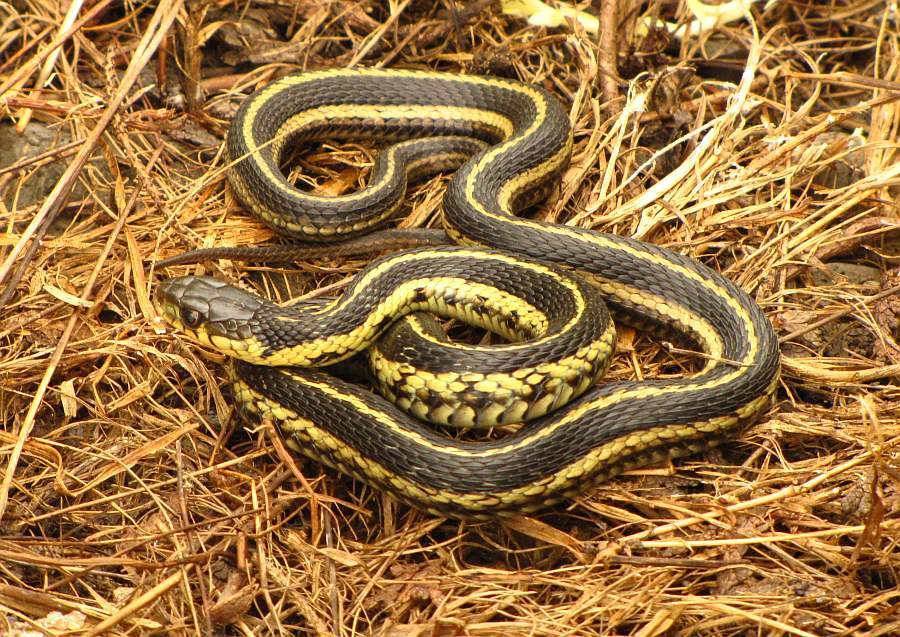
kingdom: Animalia
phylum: Chordata
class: Squamata
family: Colubridae
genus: Thamnophis
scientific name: Thamnophis sirtalis
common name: Common garter snake
